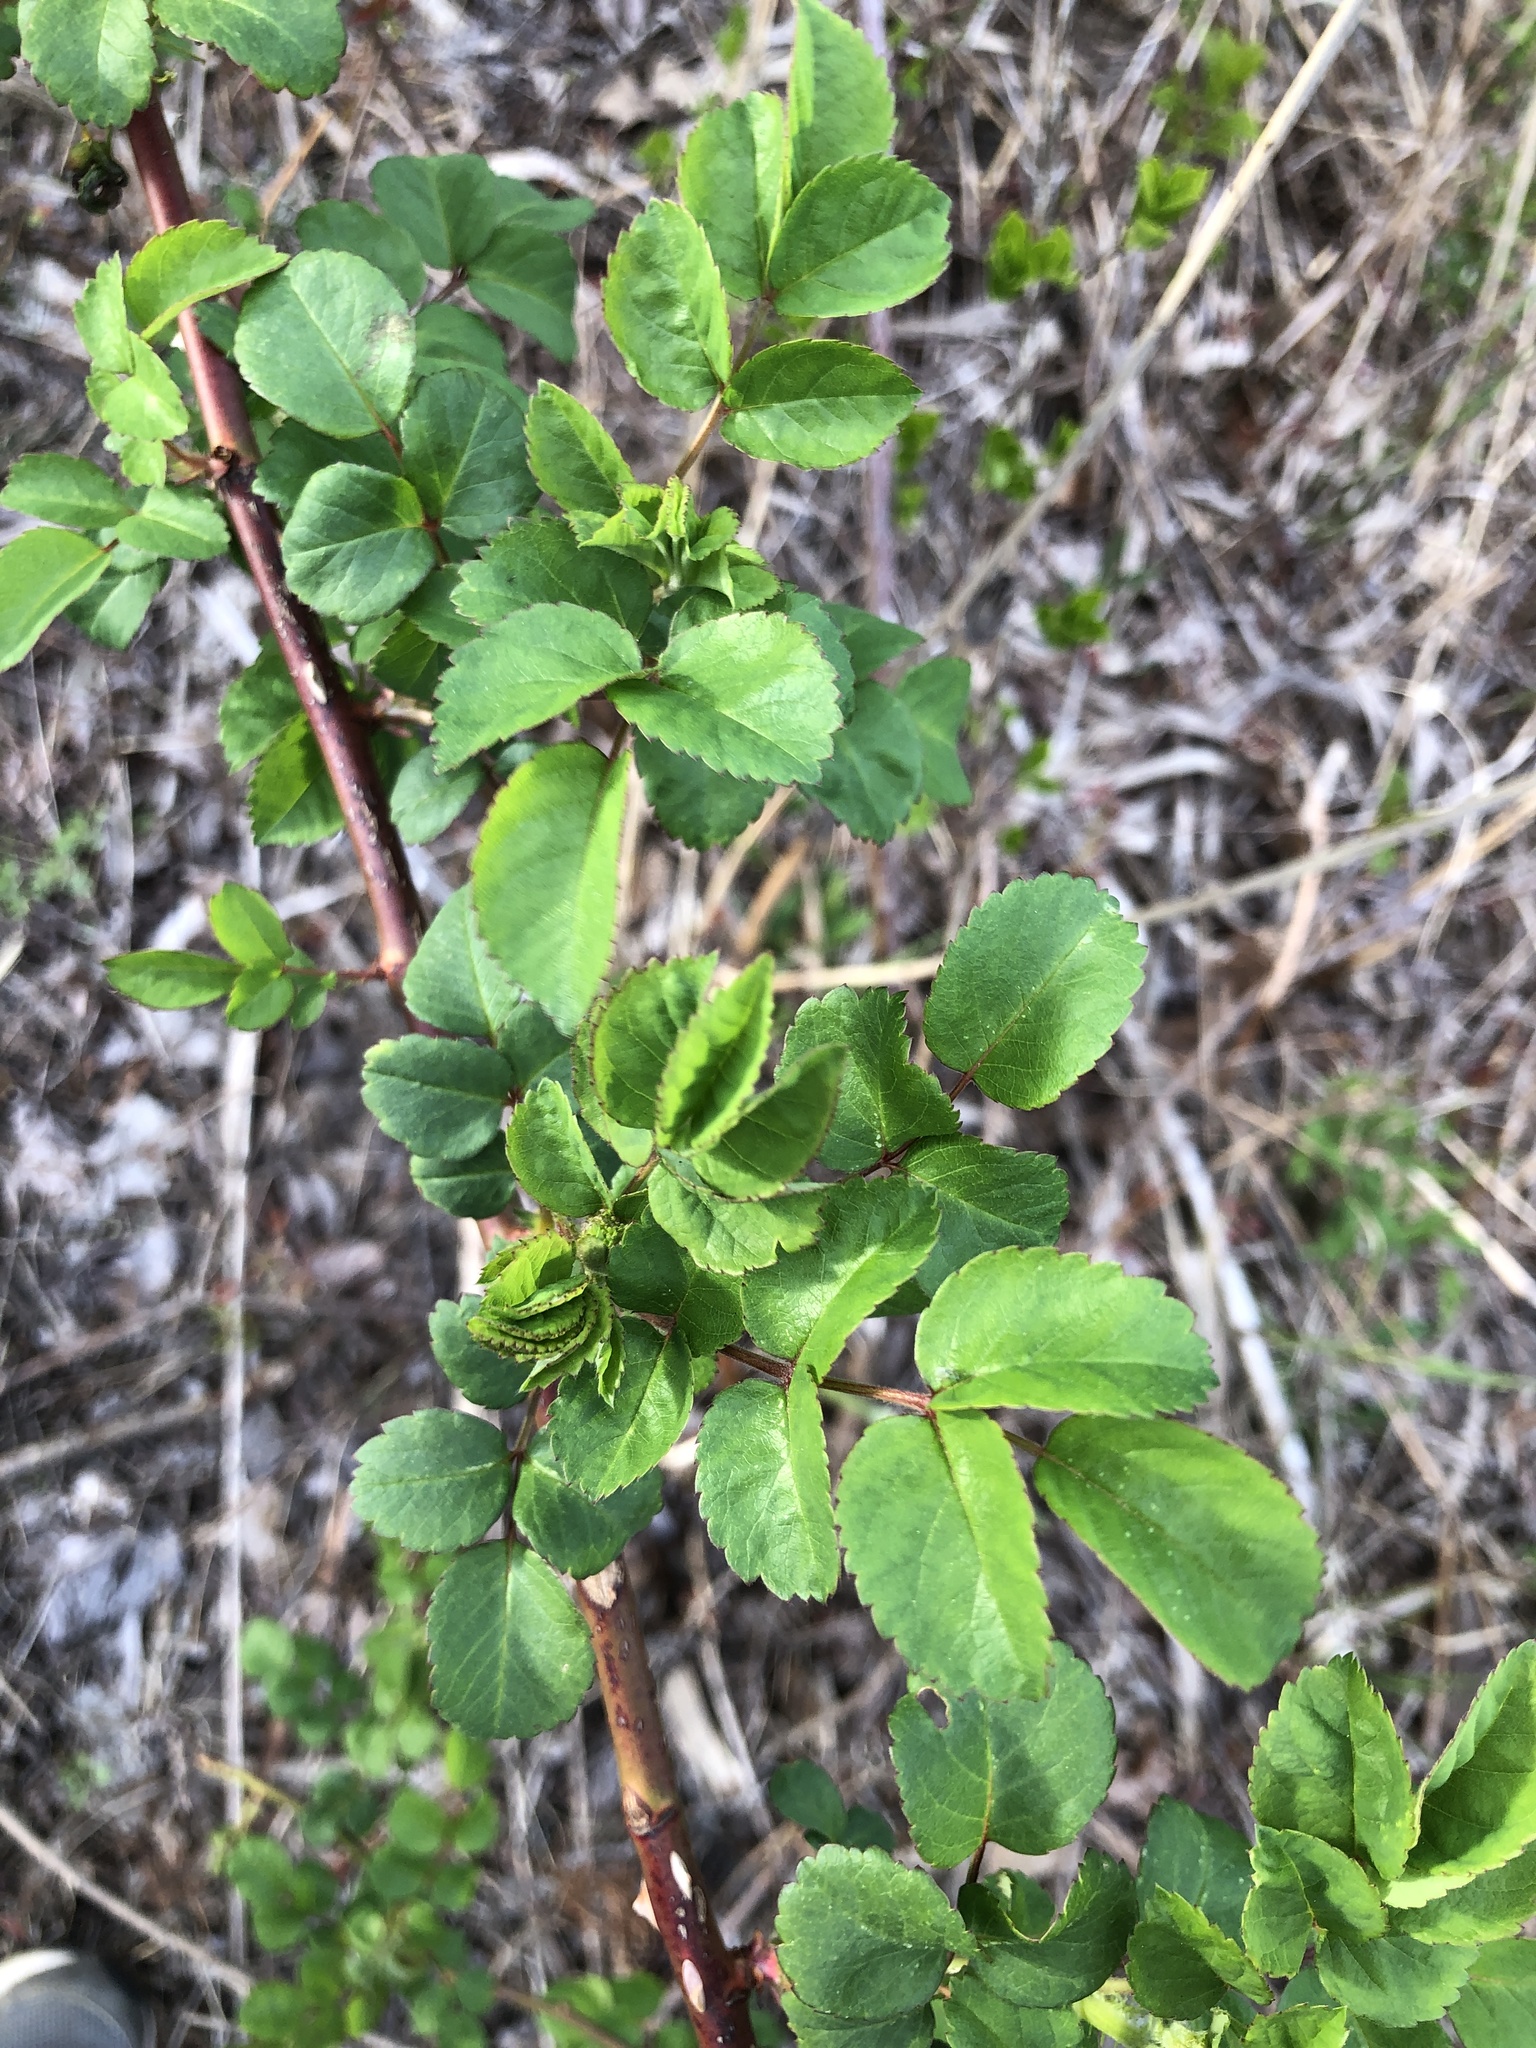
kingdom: Plantae
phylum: Tracheophyta
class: Magnoliopsida
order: Rosales
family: Rosaceae
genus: Rosa
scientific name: Rosa multiflora
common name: Multiflora rose
